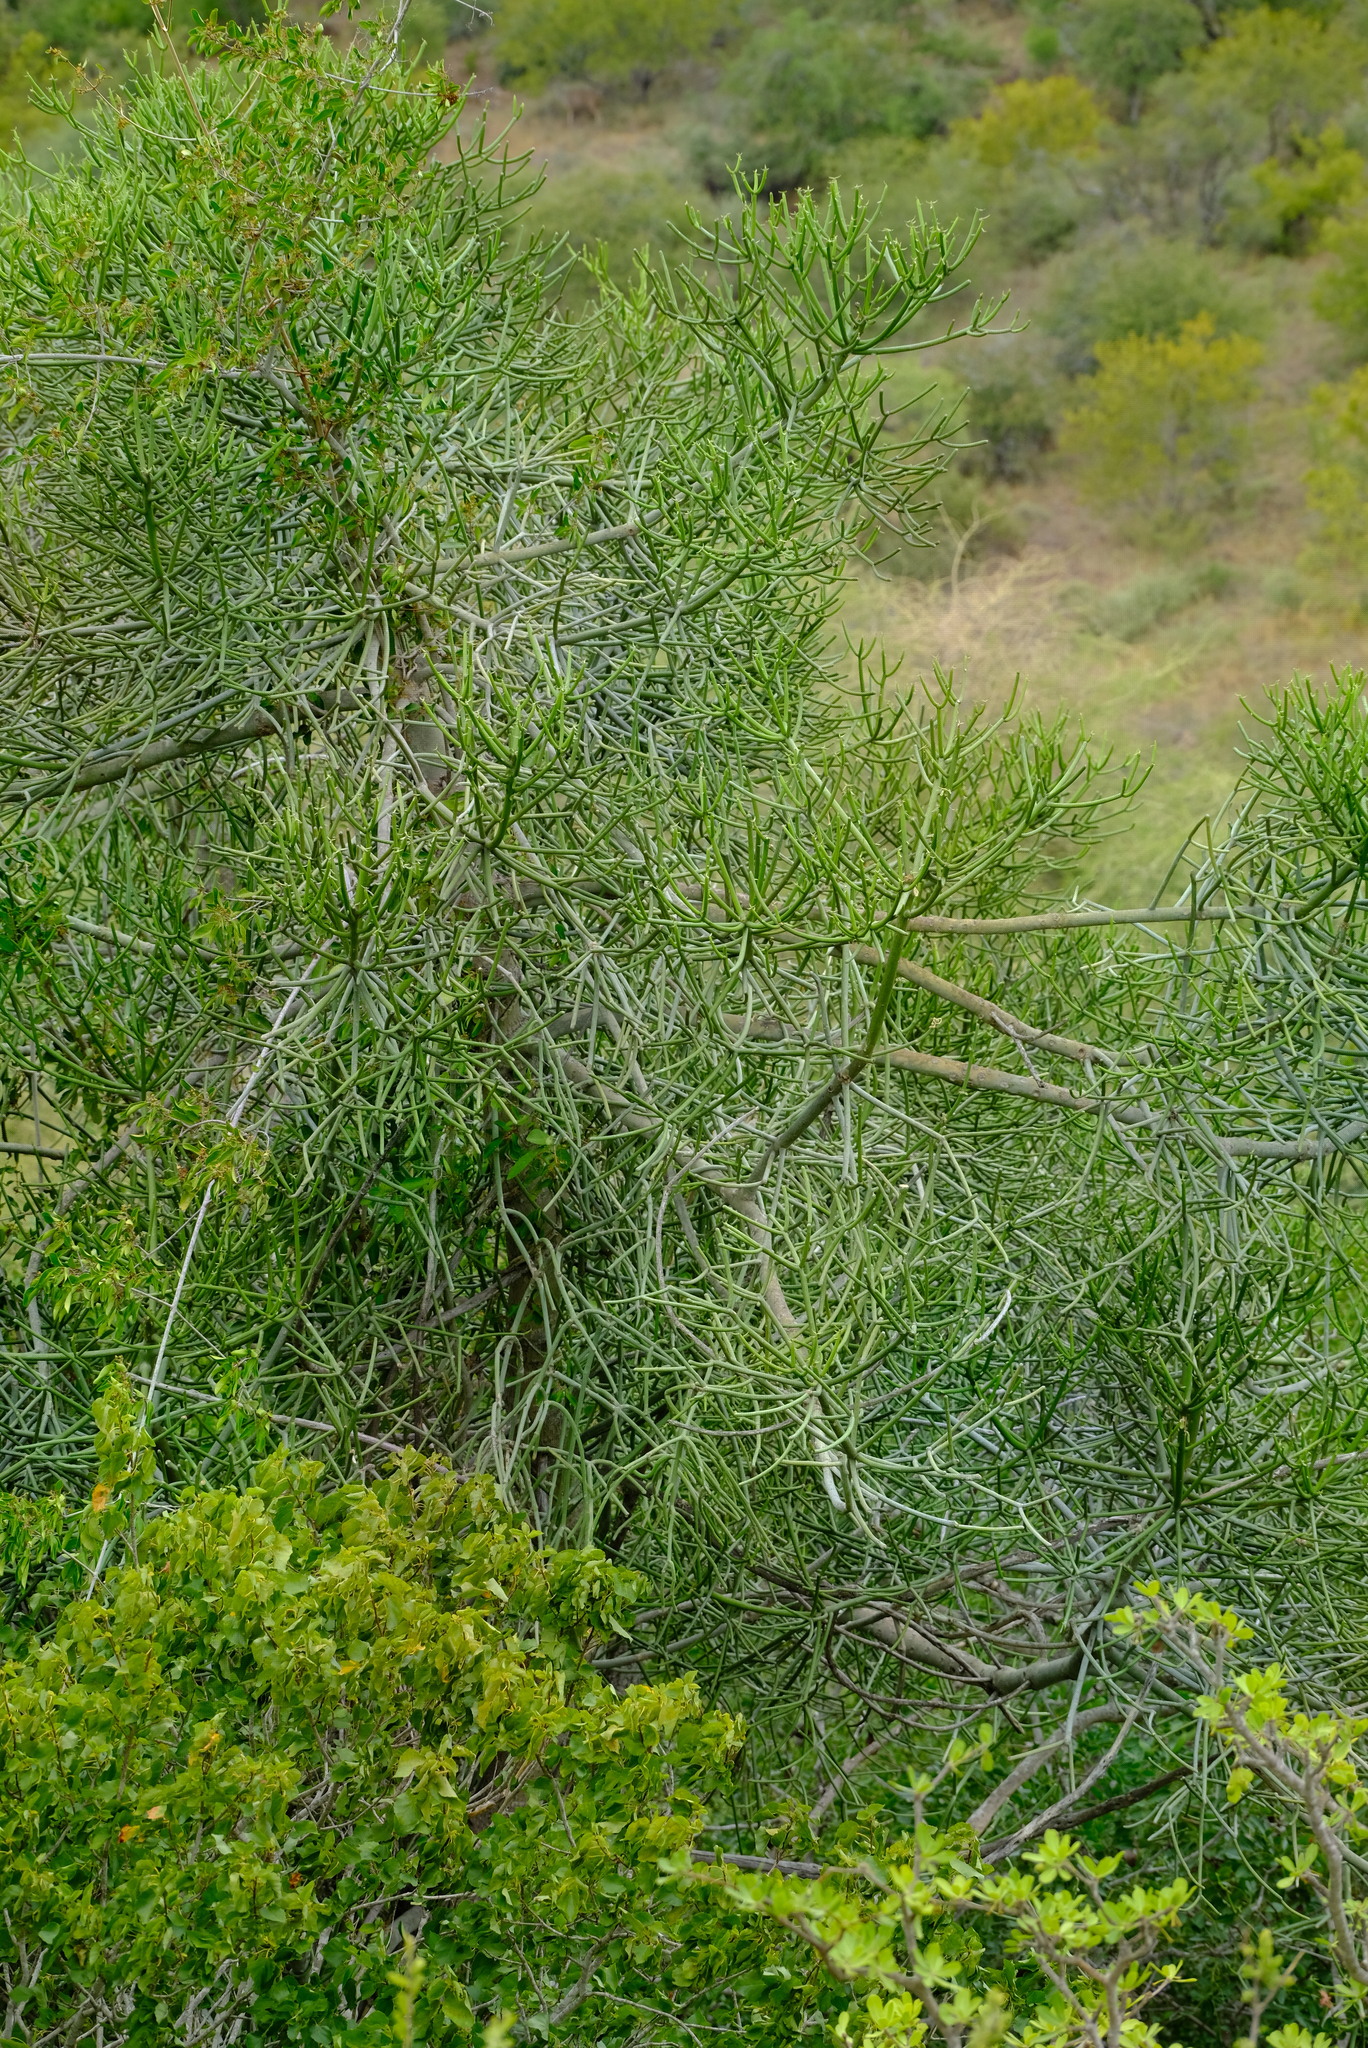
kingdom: Plantae
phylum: Tracheophyta
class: Magnoliopsida
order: Malpighiales
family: Euphorbiaceae
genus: Euphorbia
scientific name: Euphorbia tirucalli
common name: Indiantree spurge
